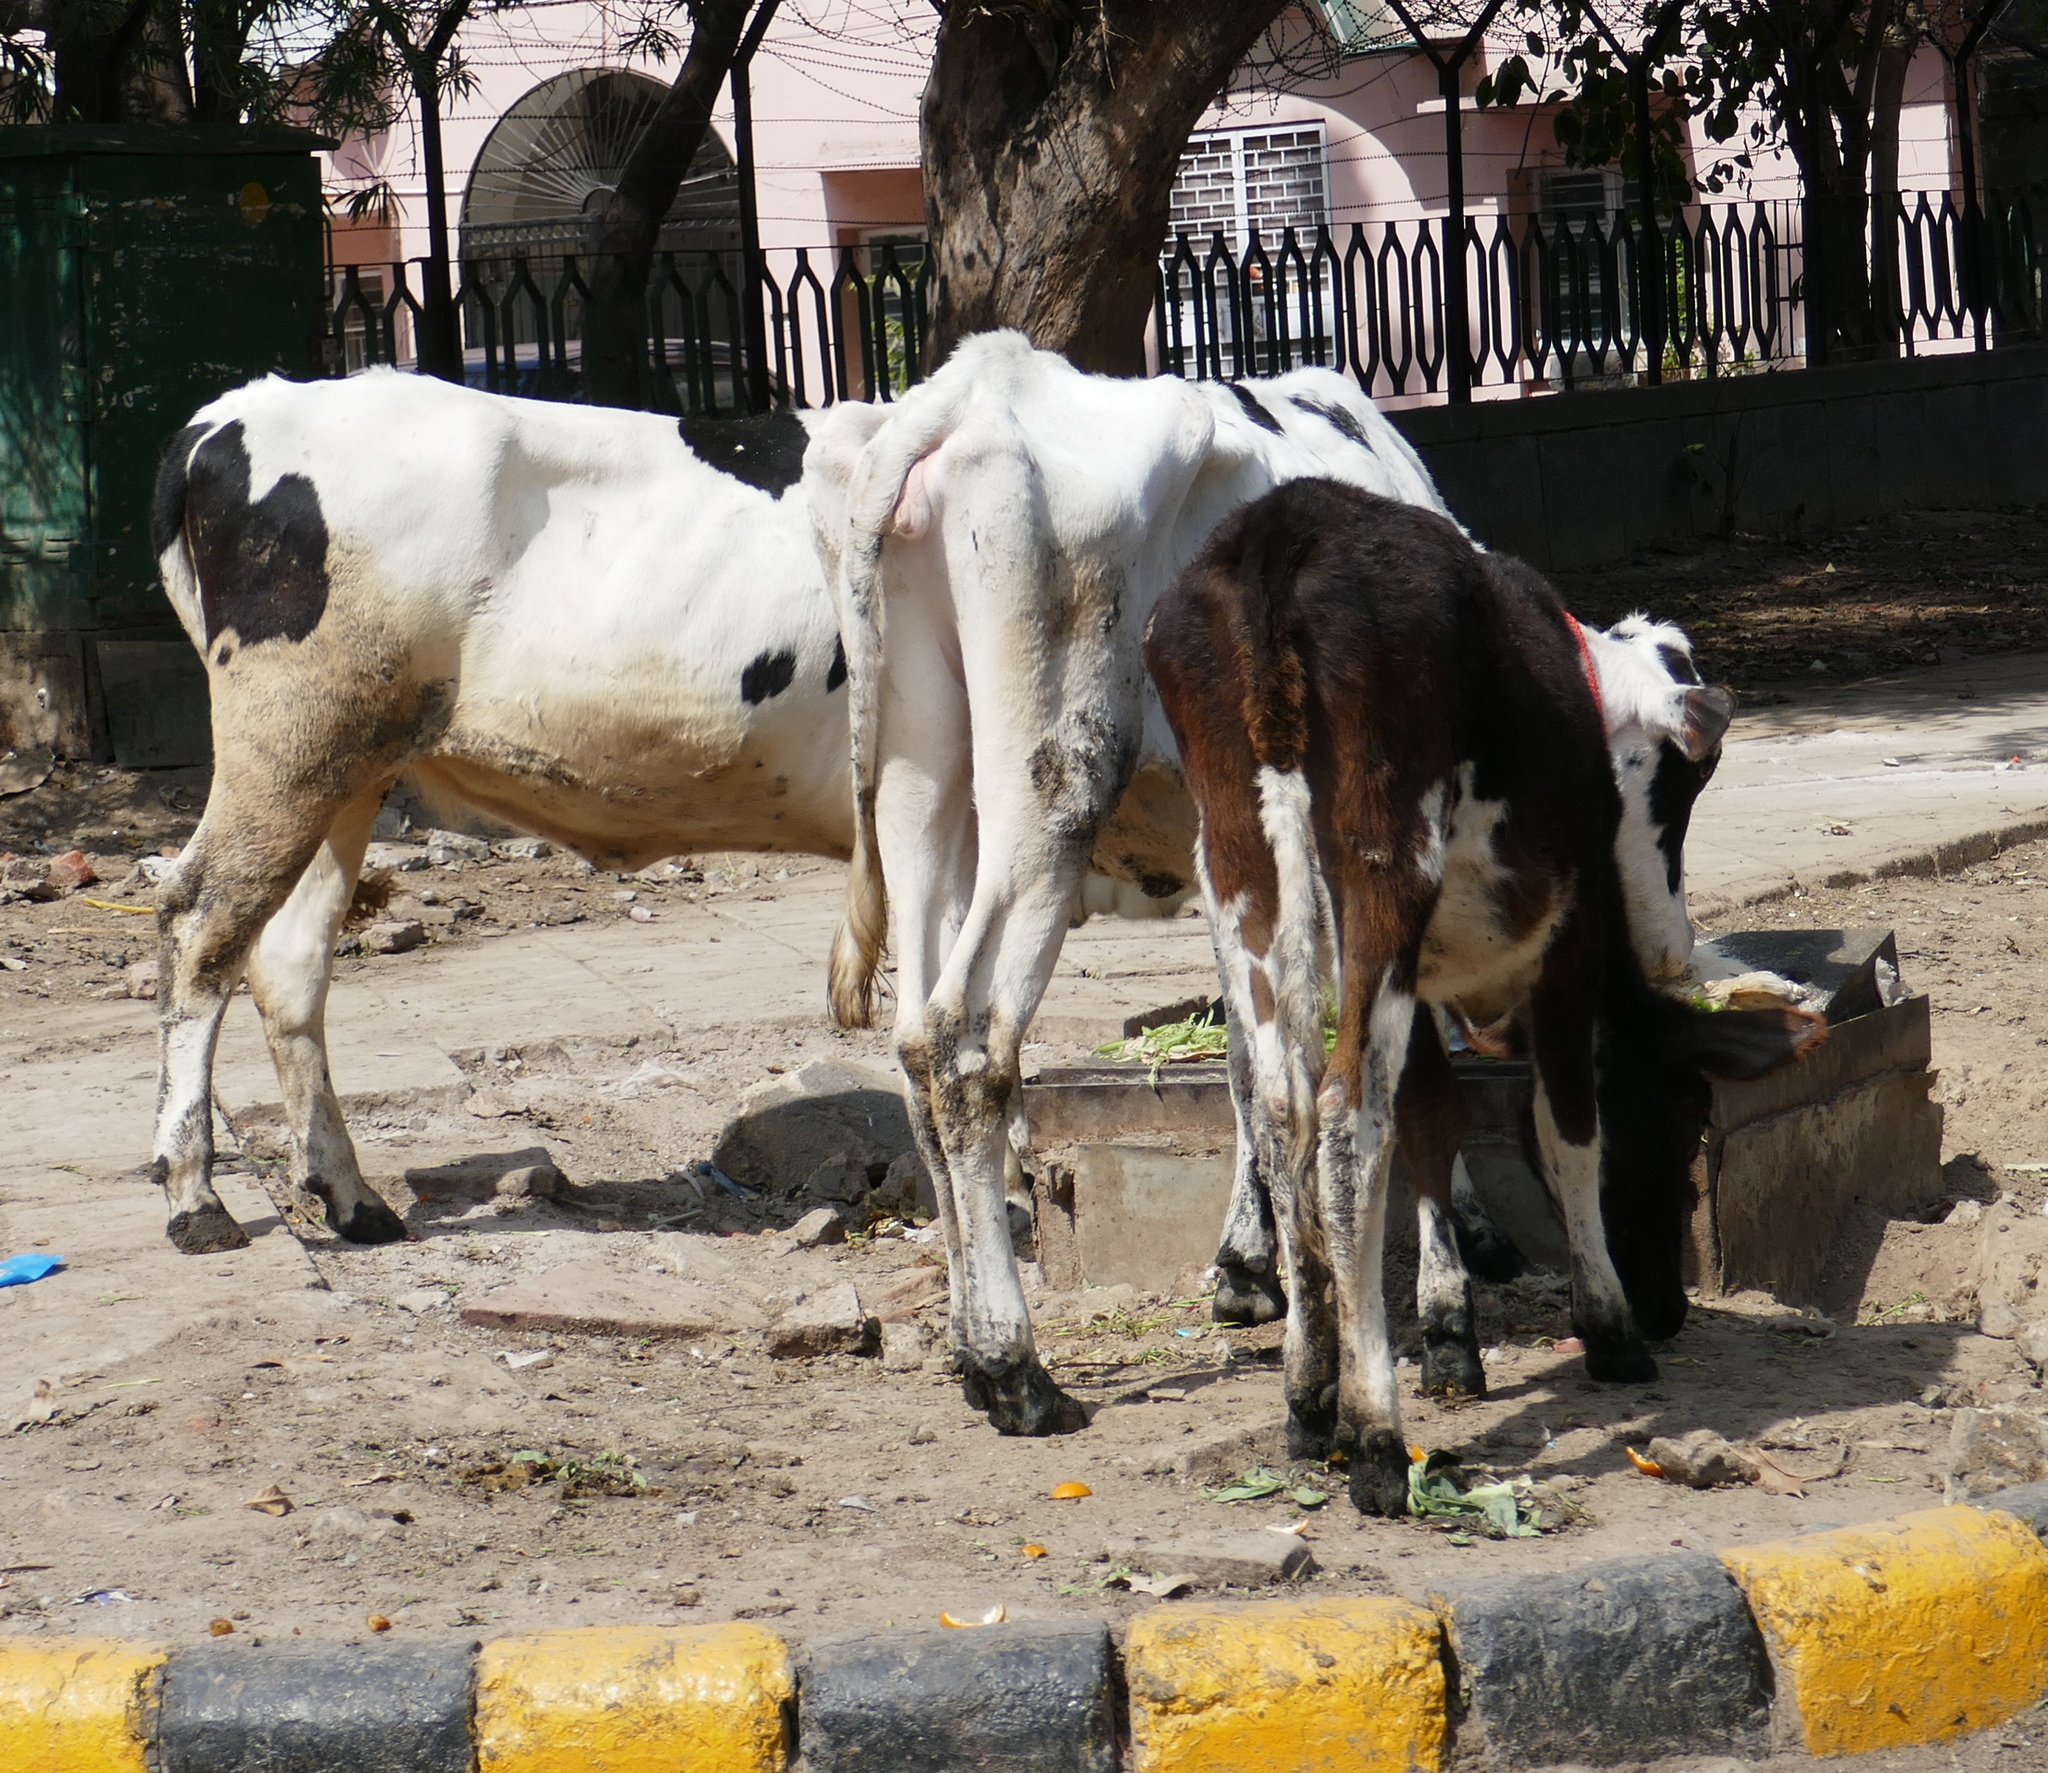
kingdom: Animalia
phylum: Chordata
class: Mammalia
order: Artiodactyla
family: Bovidae
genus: Bos
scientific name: Bos taurus
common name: Domesticated cattle
